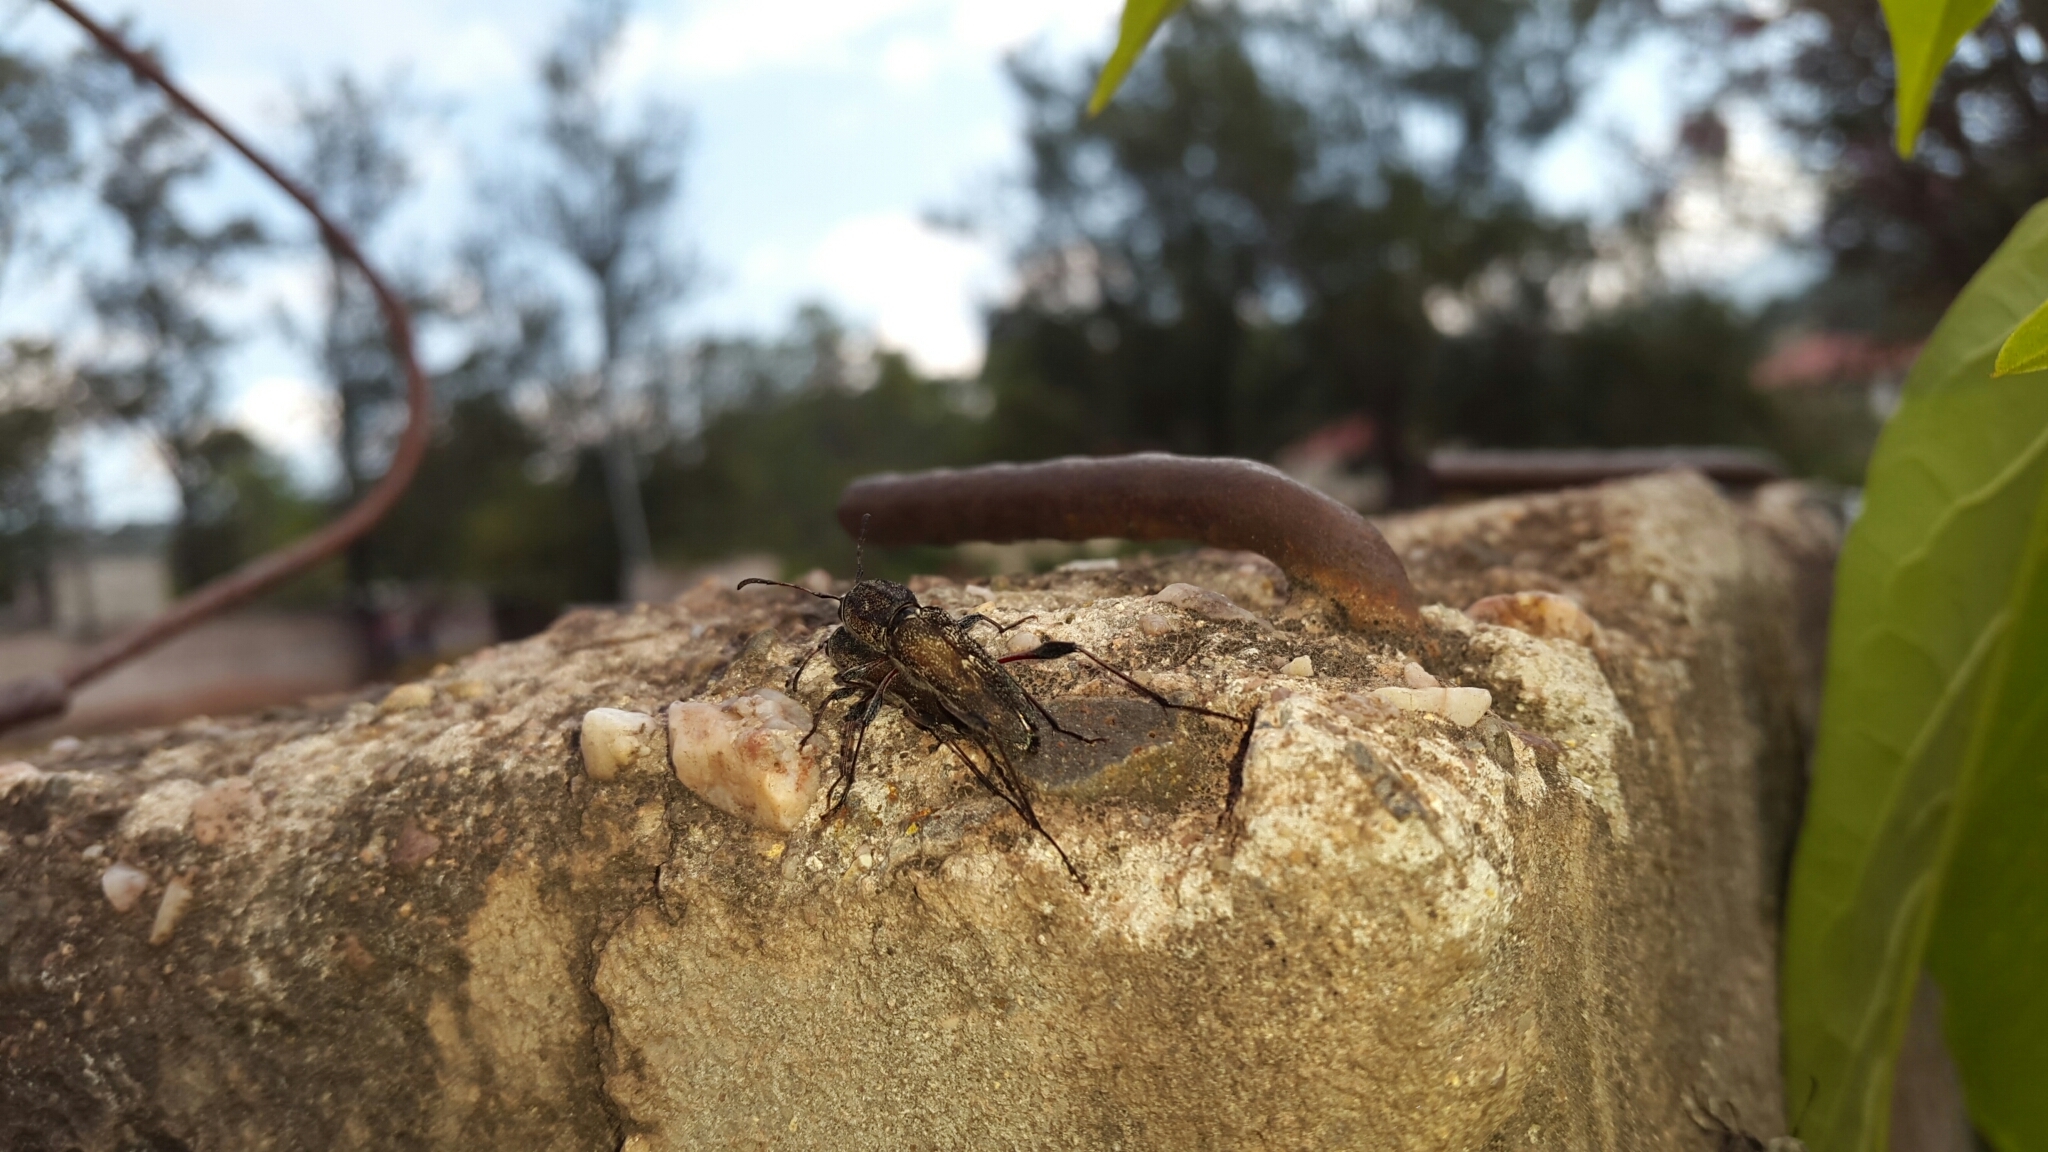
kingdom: Animalia
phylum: Arthropoda
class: Insecta
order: Coleoptera
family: Cerambycidae
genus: Neoclytus
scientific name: Neoclytus irroratus
